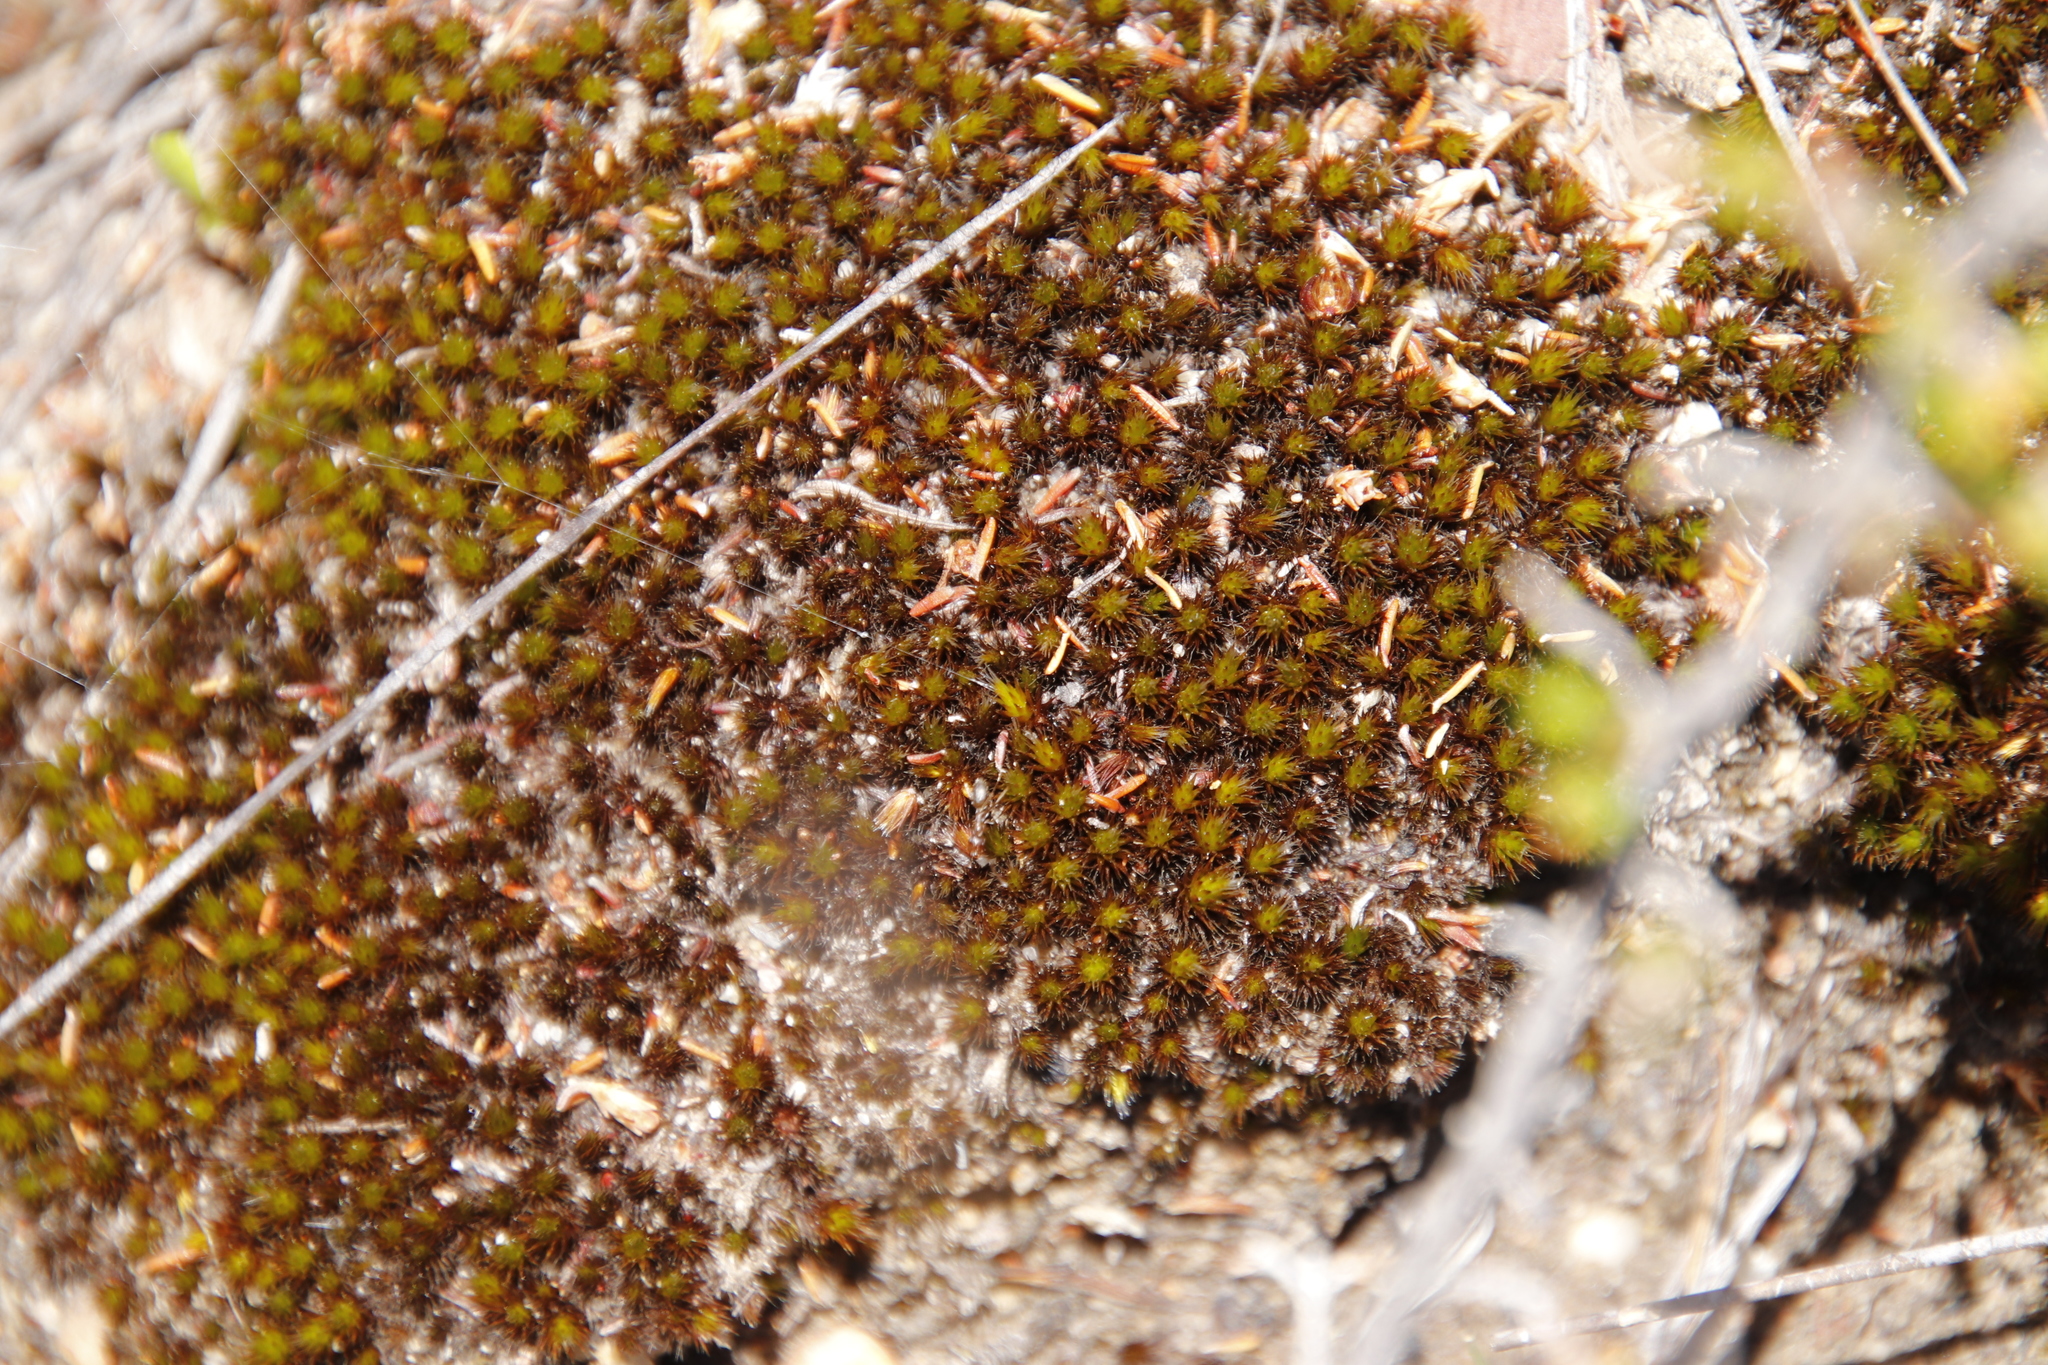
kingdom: Plantae
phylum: Bryophyta
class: Bryopsida
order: Dicranales
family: Leucobryaceae
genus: Campylopus
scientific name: Campylopus aureonitens
